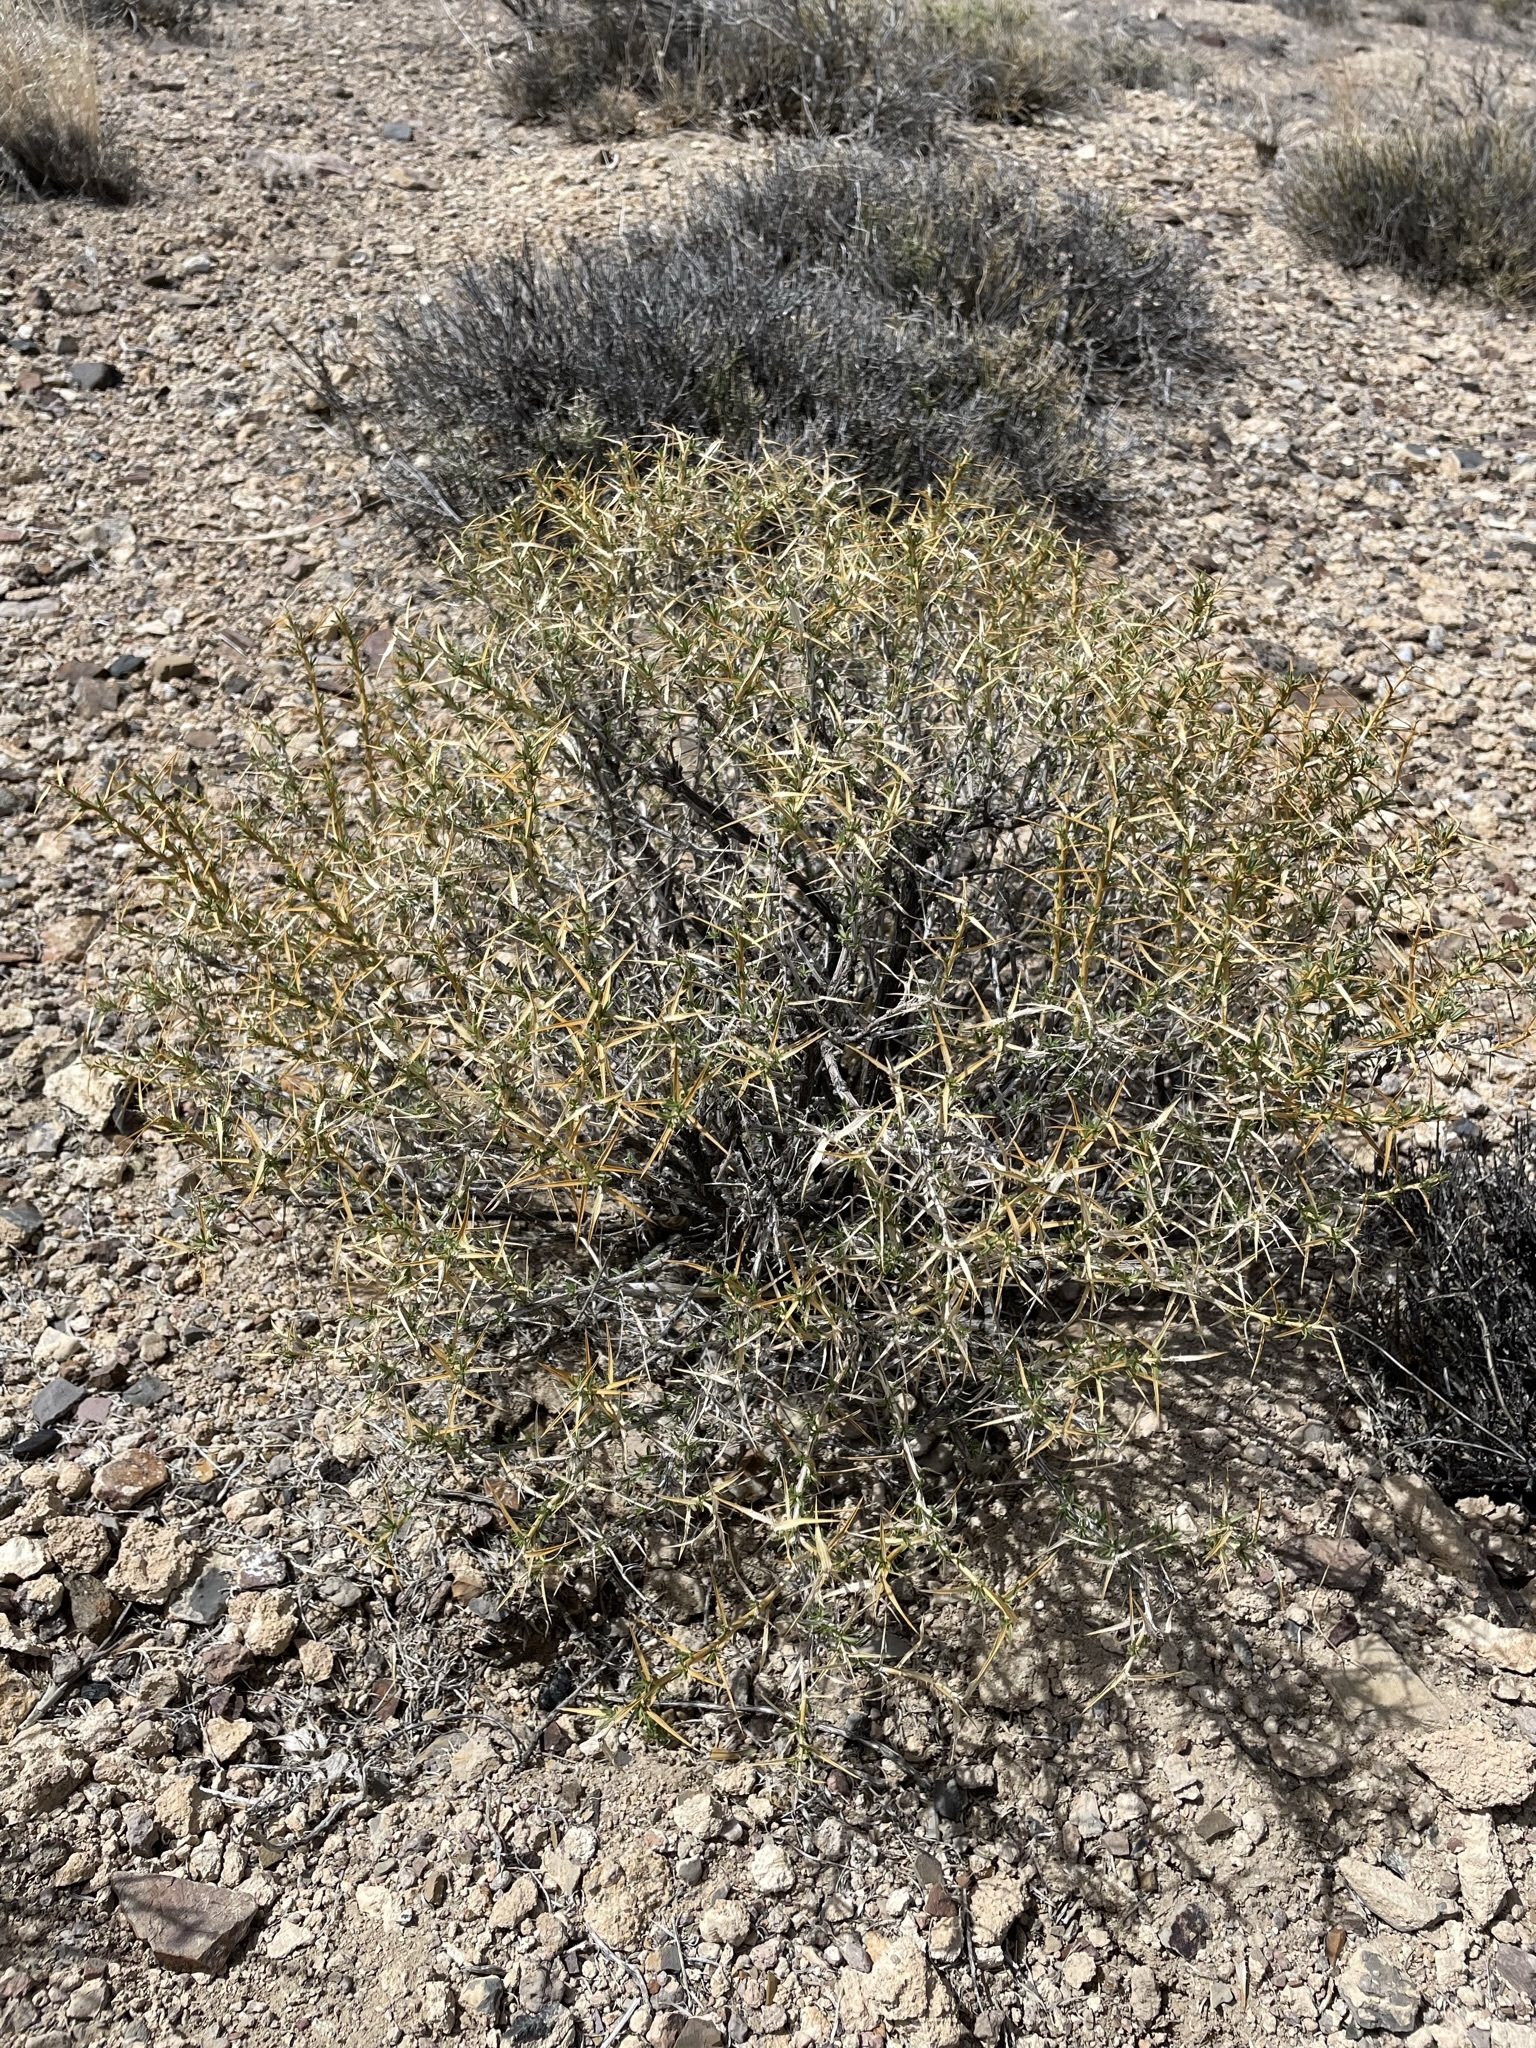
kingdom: Plantae
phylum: Tracheophyta
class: Magnoliopsida
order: Asterales
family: Asteraceae
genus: Hecastocleis
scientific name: Hecastocleis shockleyi
